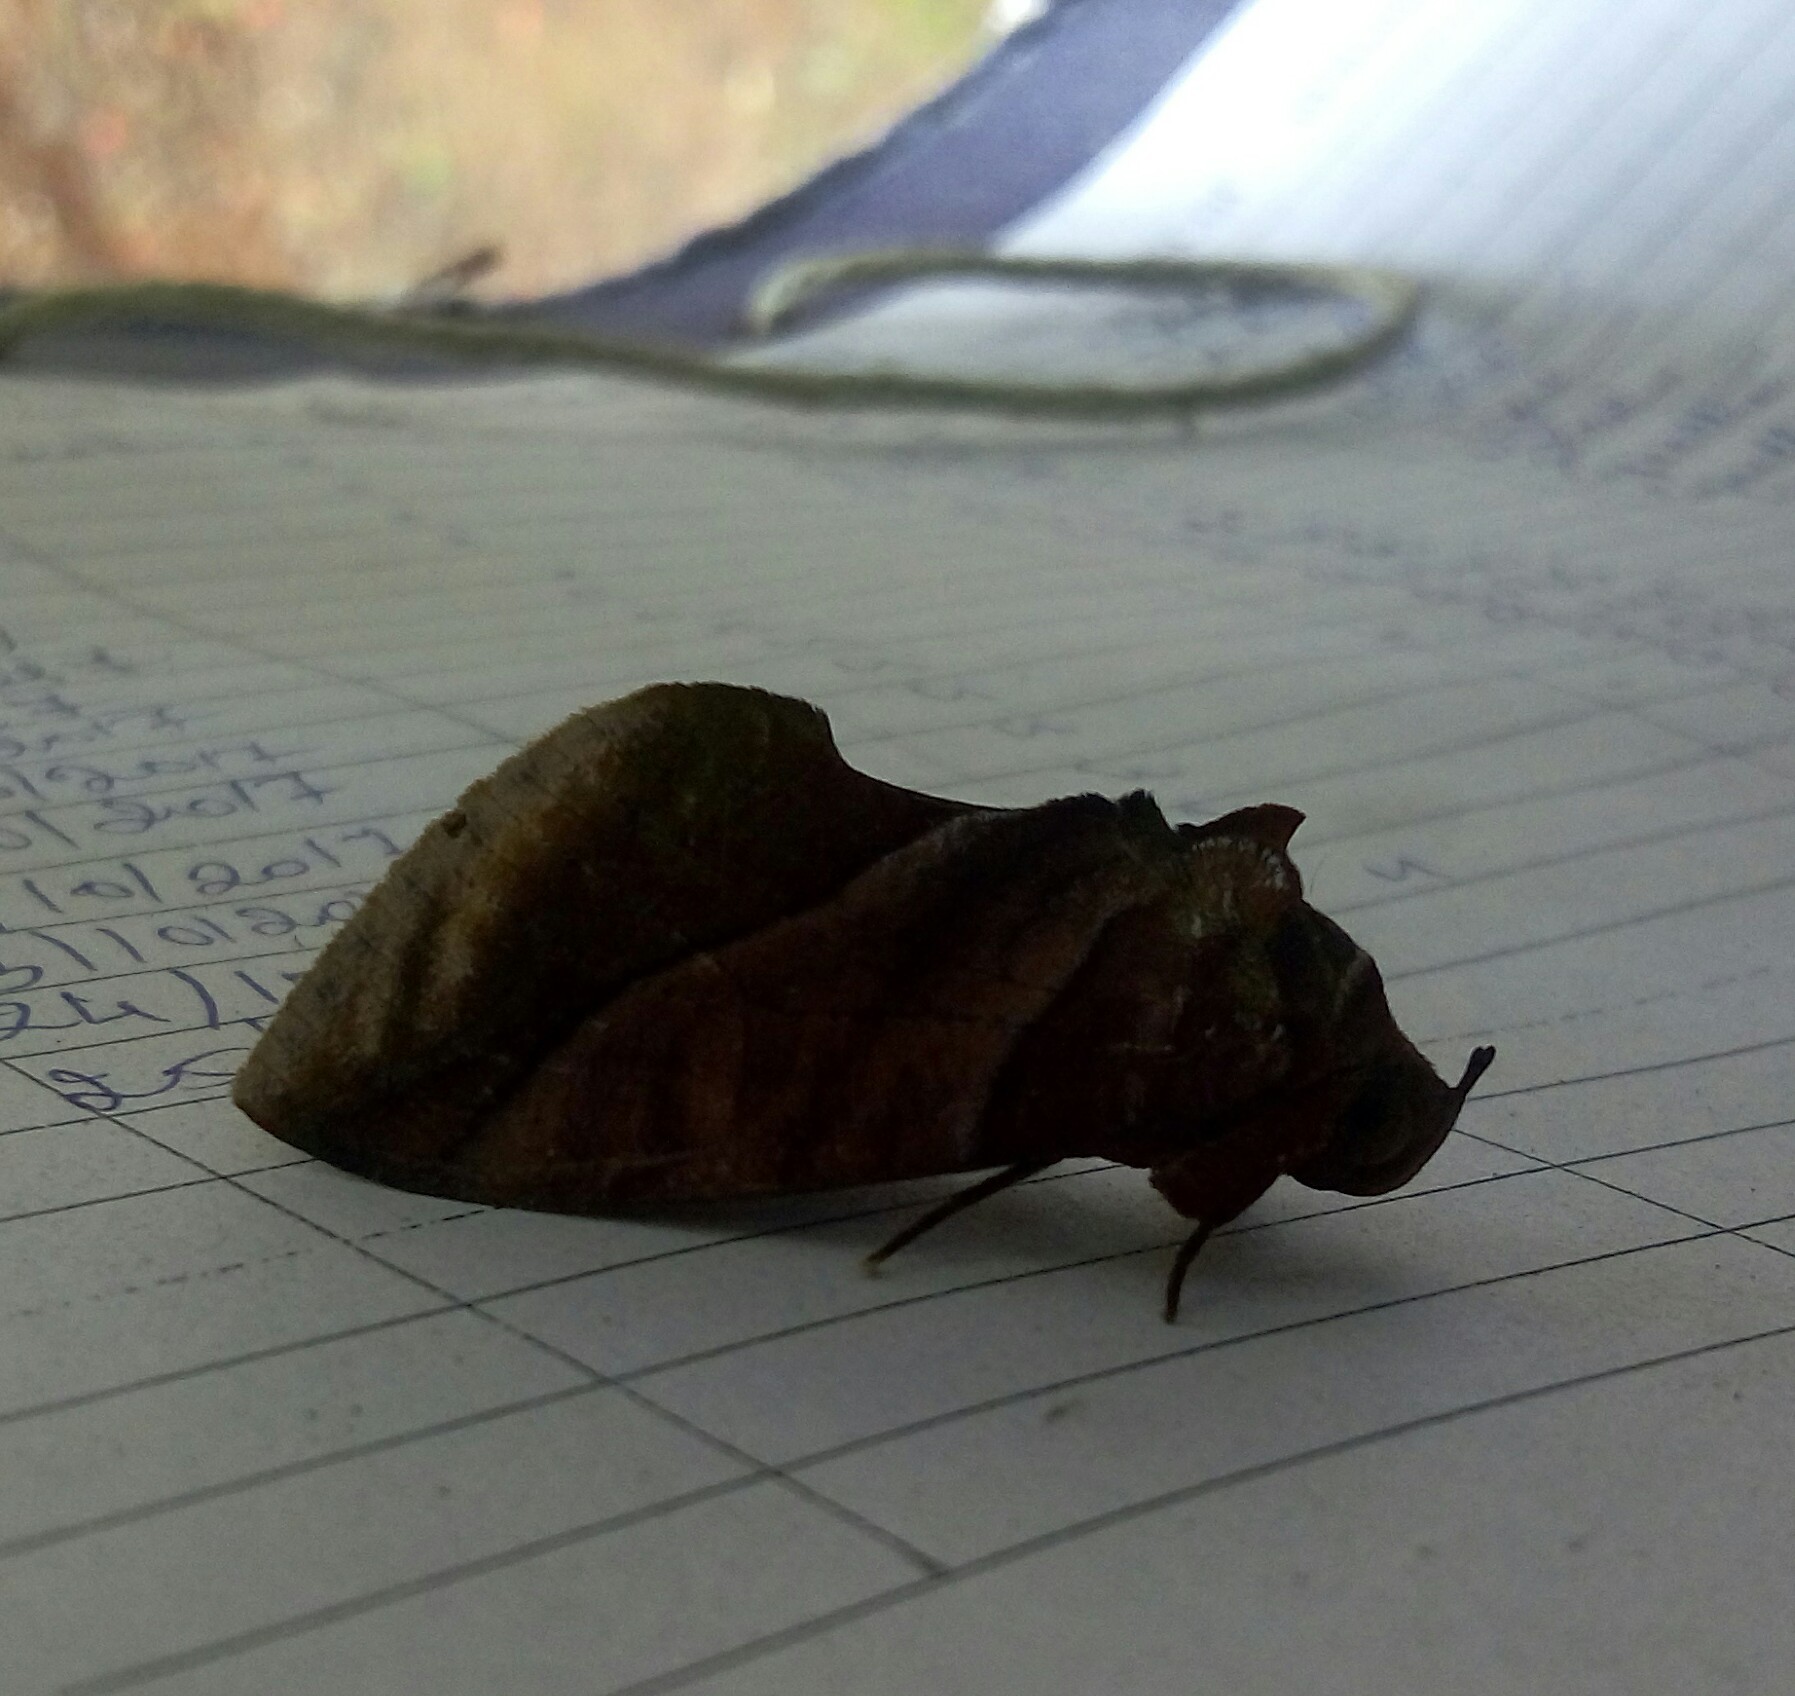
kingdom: Animalia
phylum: Arthropoda
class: Insecta
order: Lepidoptera
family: Erebidae
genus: Eudocima
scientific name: Eudocima homaena
